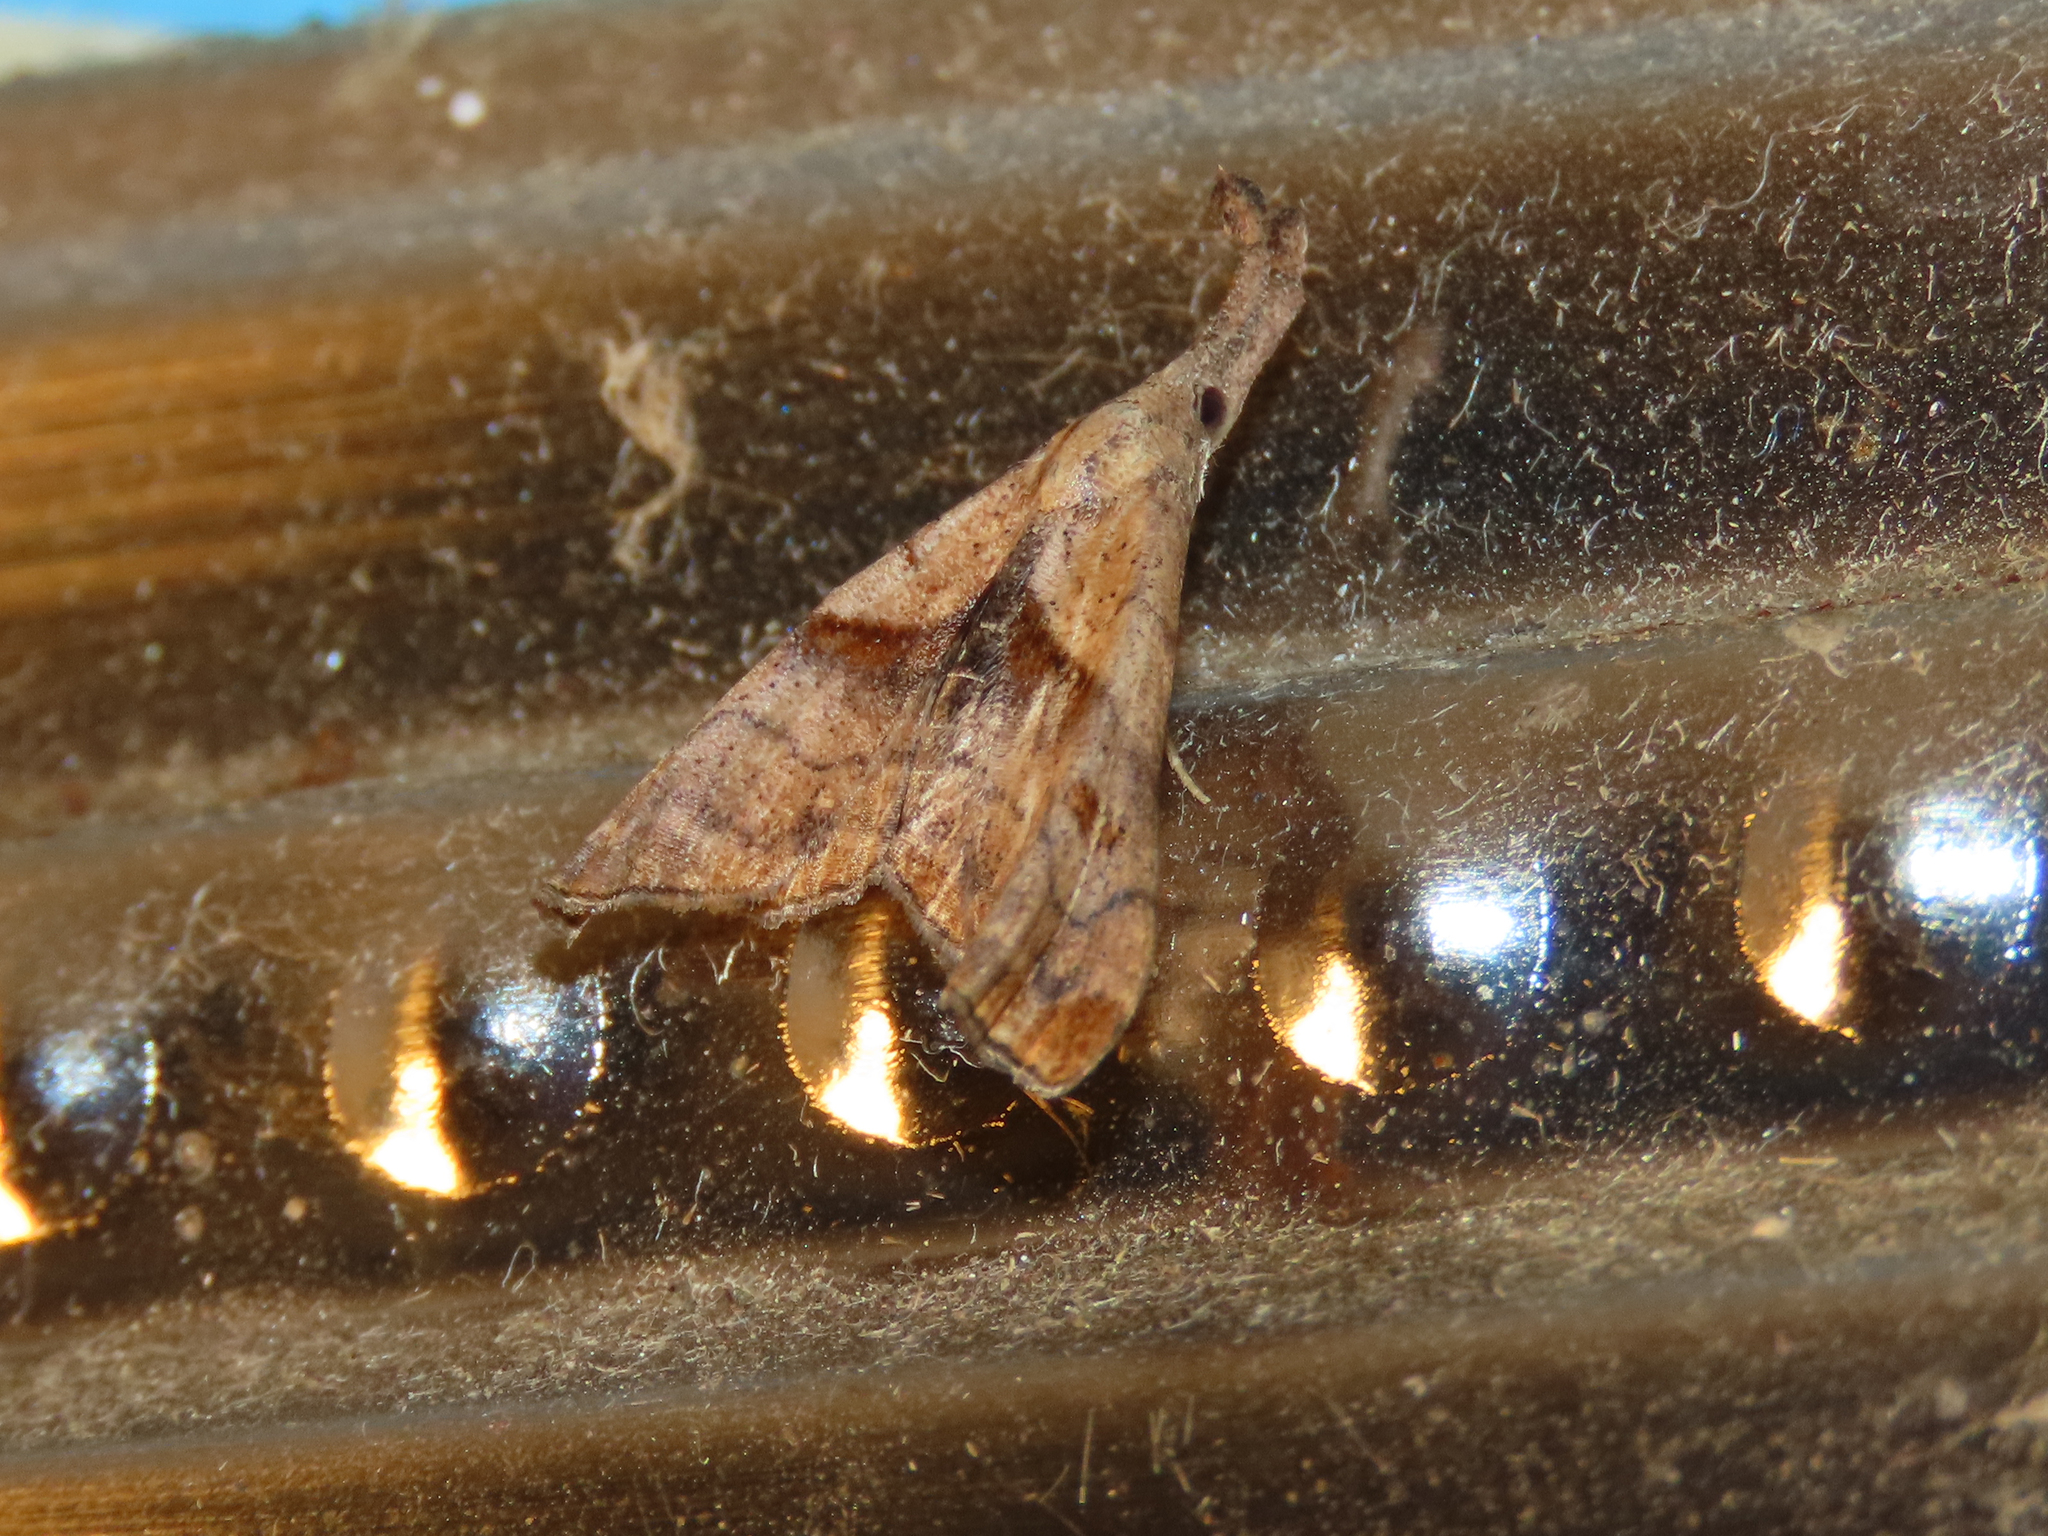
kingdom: Animalia
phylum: Arthropoda
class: Insecta
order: Lepidoptera
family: Erebidae
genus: Palthis
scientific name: Palthis angulalis
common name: Dark-spotted palthis moth
